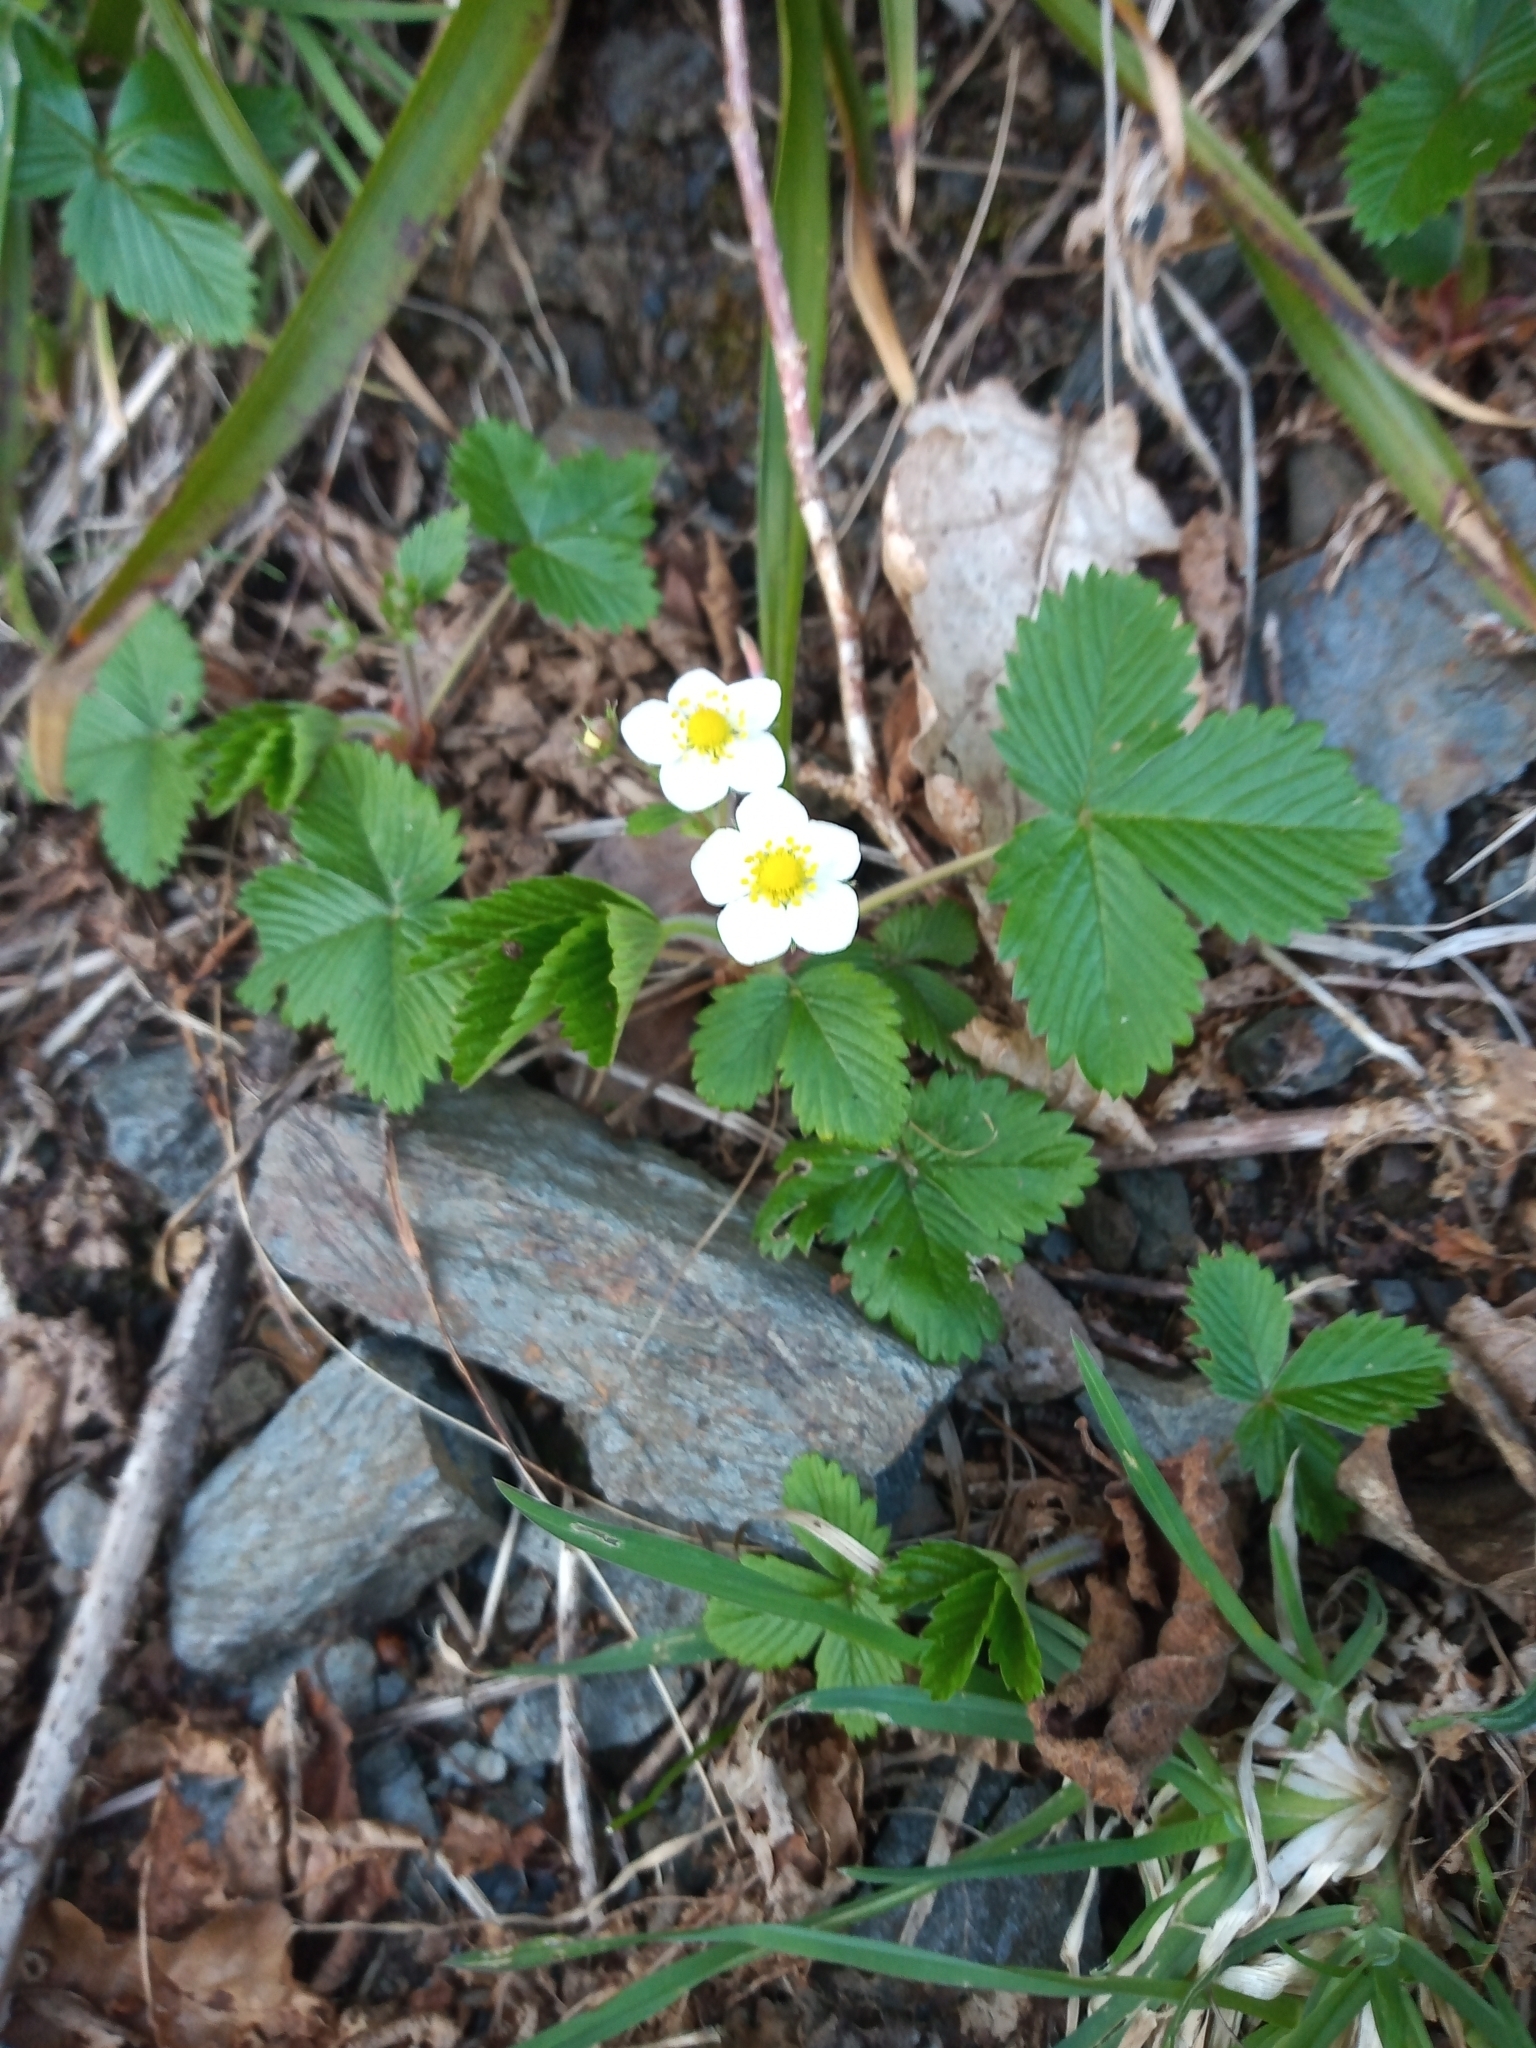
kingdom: Plantae
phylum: Tracheophyta
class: Magnoliopsida
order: Rosales
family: Rosaceae
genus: Fragaria
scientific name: Fragaria vesca
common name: Wild strawberry
